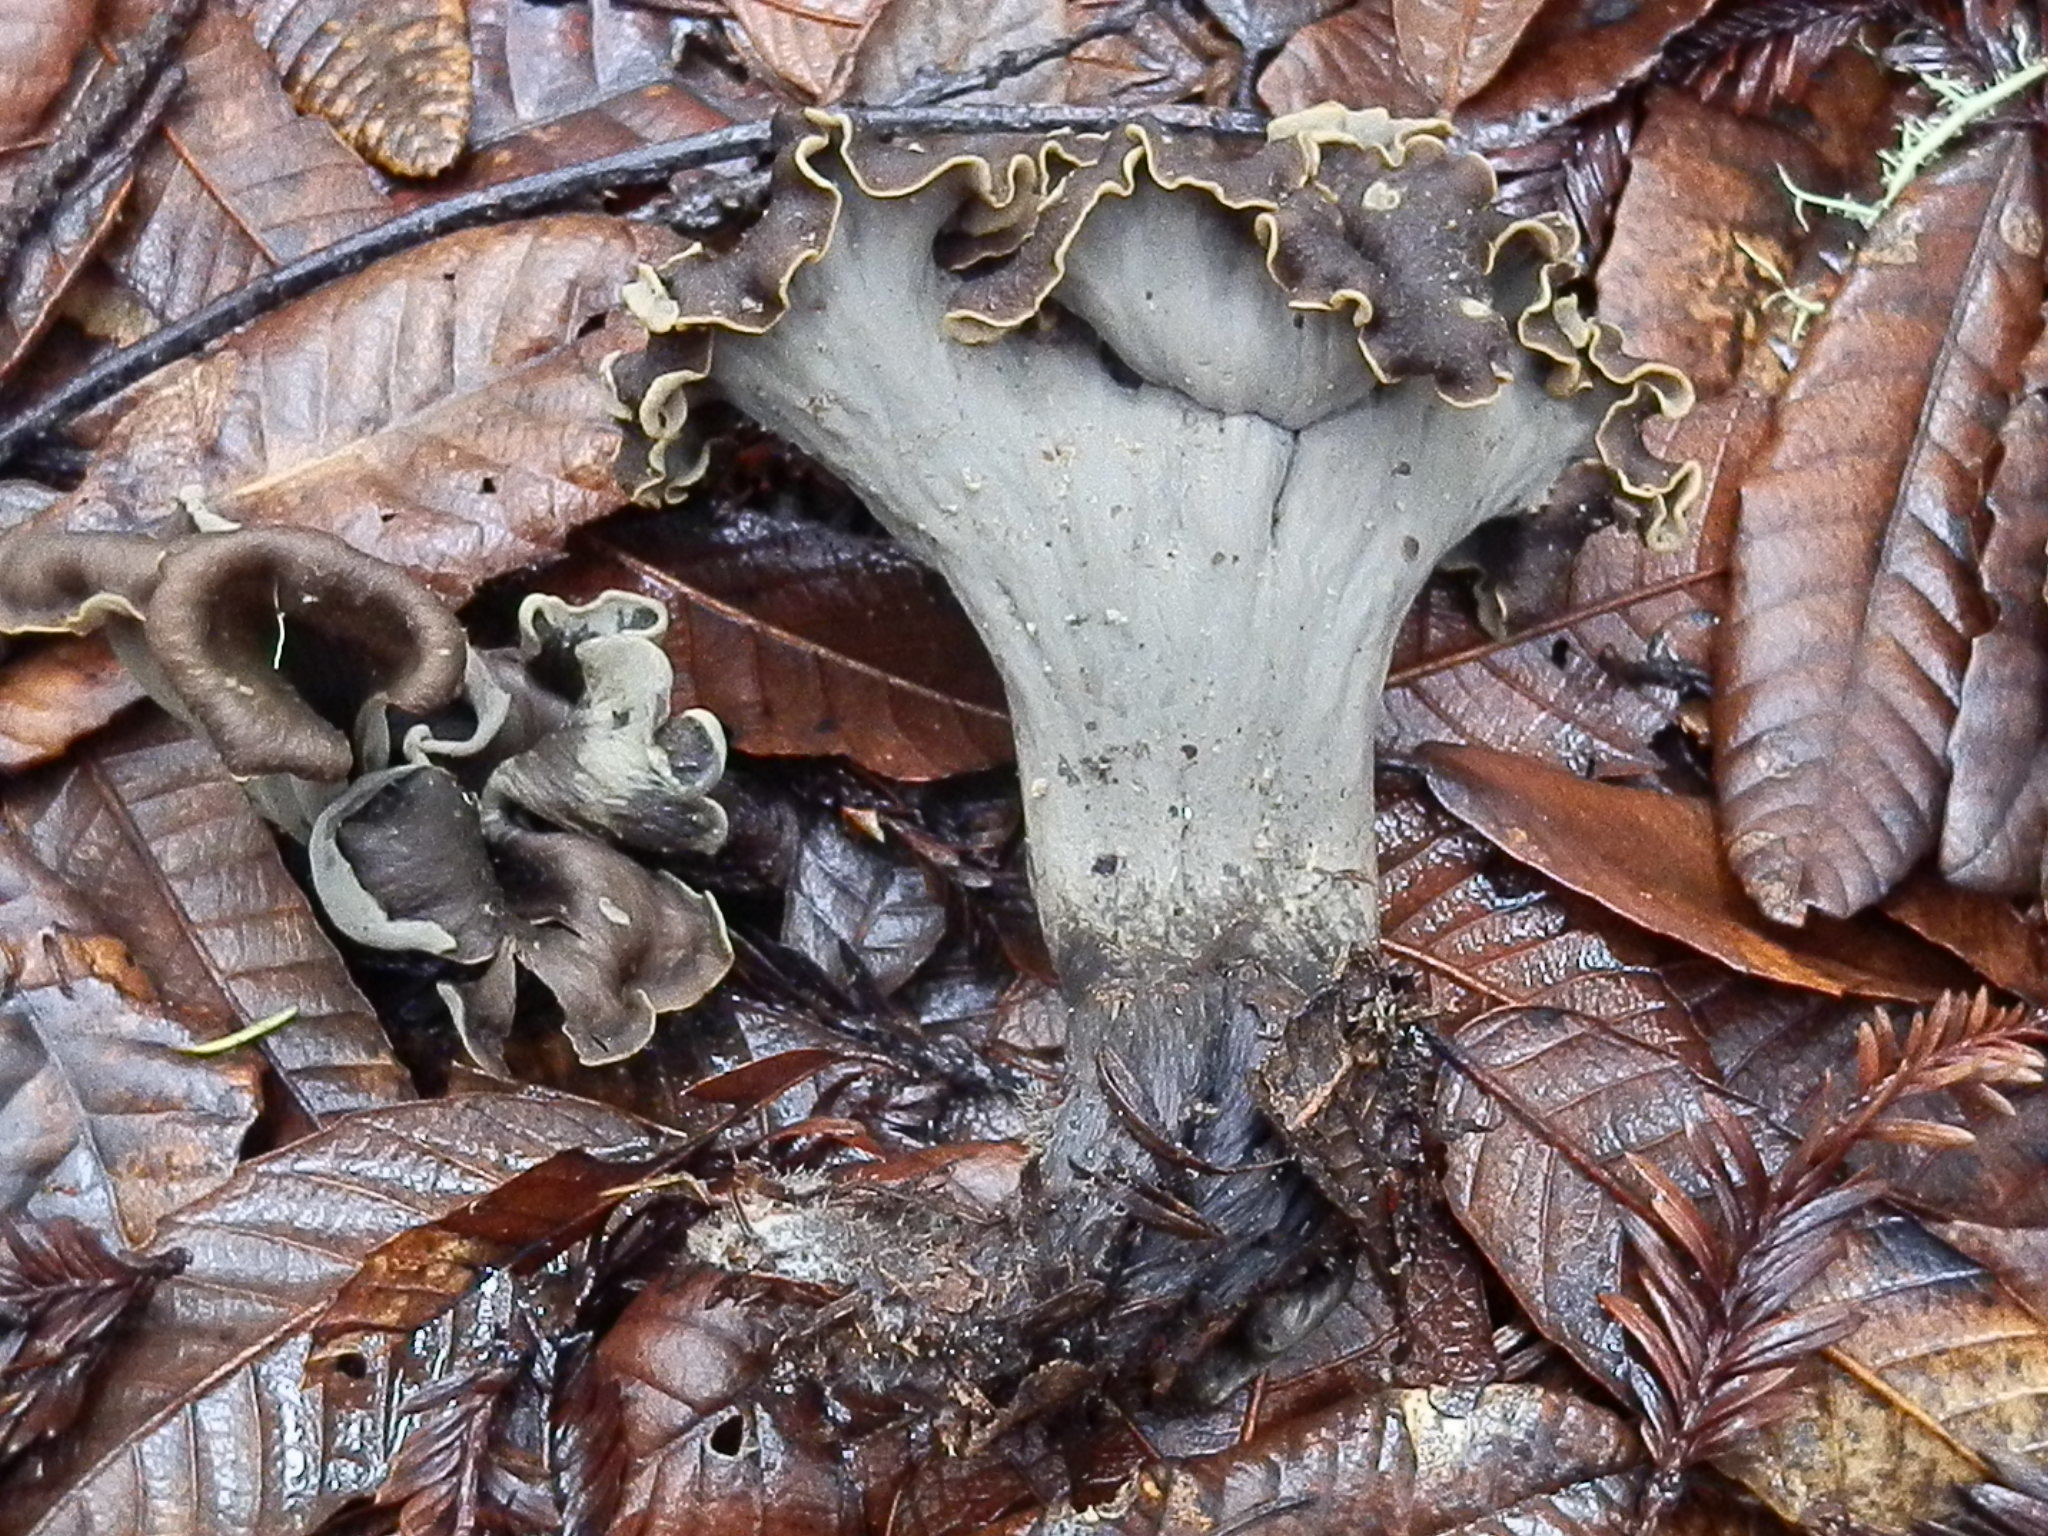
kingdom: Fungi
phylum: Basidiomycota
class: Agaricomycetes
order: Cantharellales
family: Hydnaceae
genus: Craterellus
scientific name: Craterellus calicornucopioides
